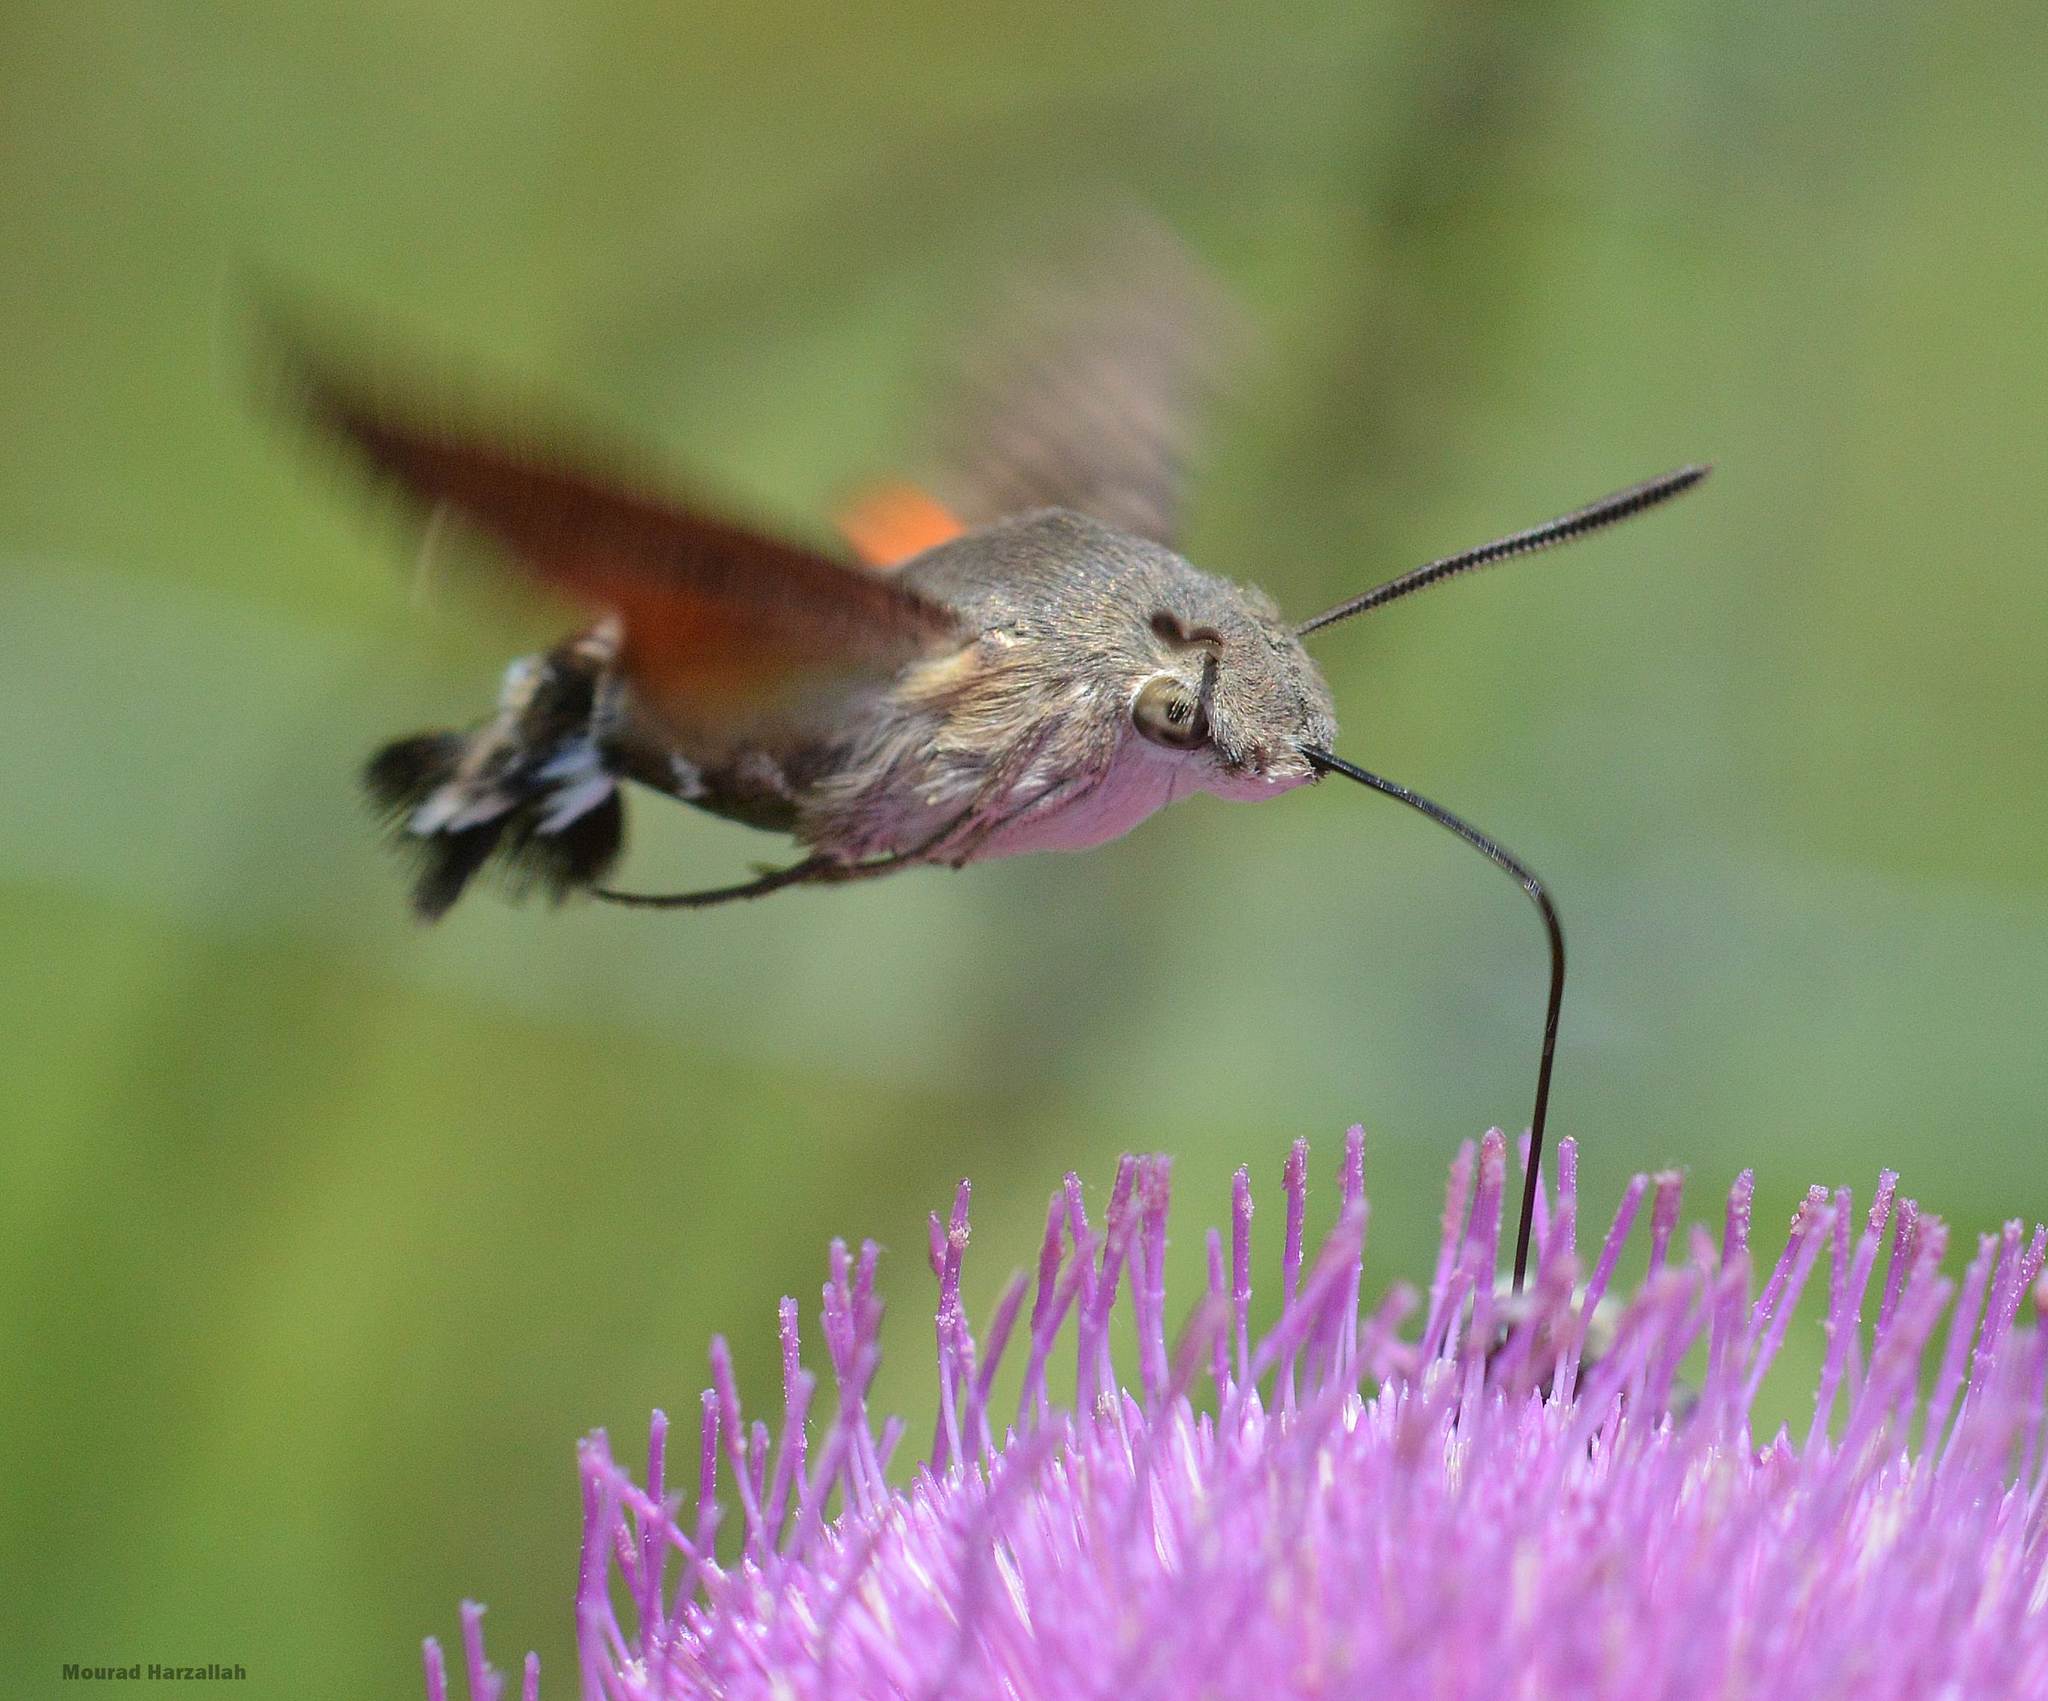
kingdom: Animalia
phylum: Arthropoda
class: Insecta
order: Lepidoptera
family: Sphingidae
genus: Macroglossum
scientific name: Macroglossum stellatarum
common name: Humming-bird hawk-moth
